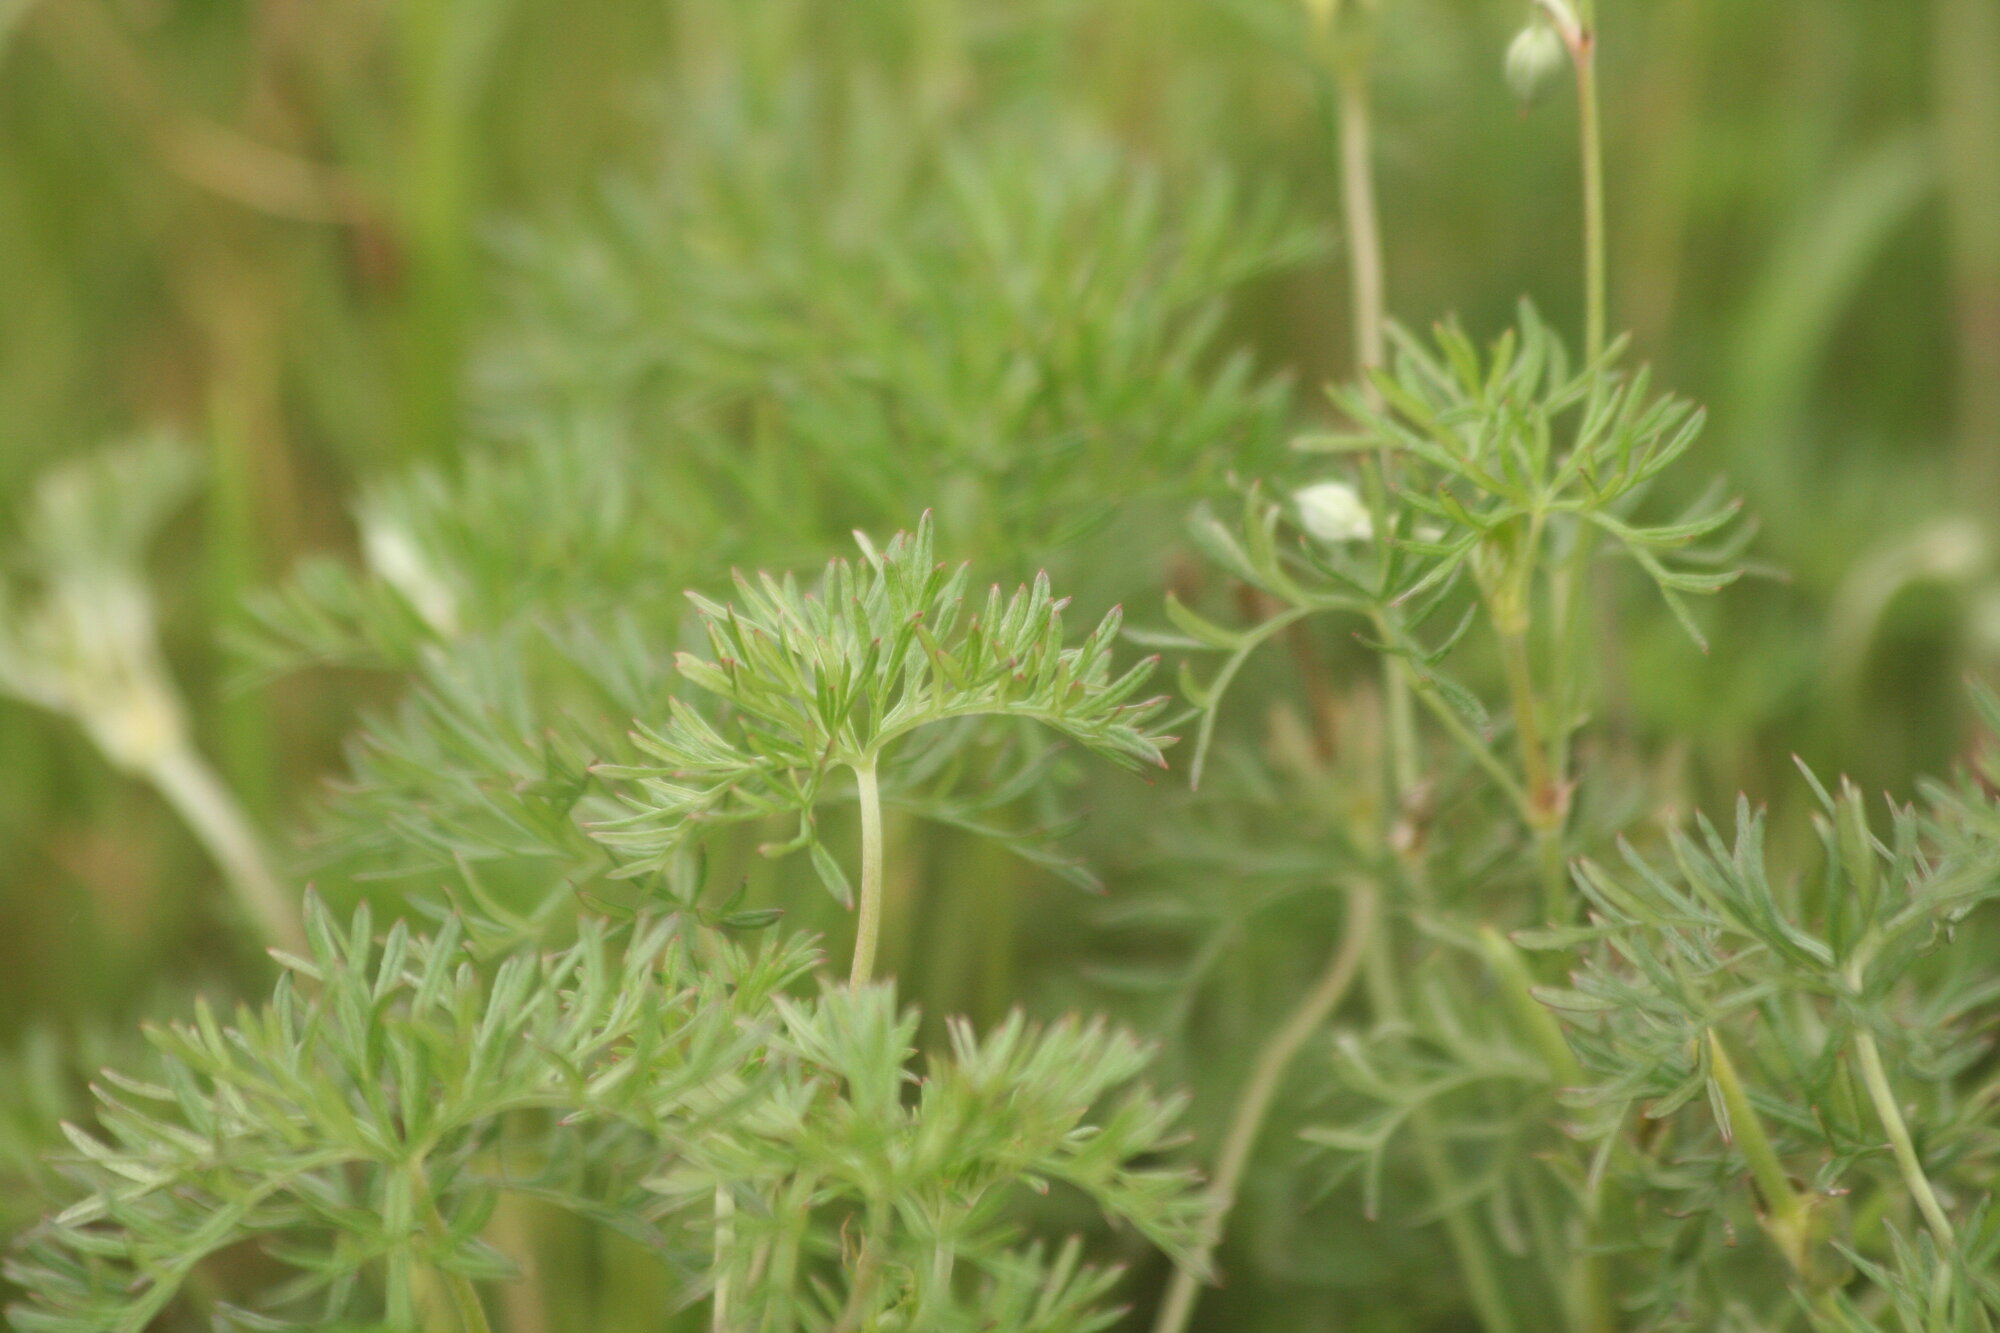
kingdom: Plantae
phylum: Tracheophyta
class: Magnoliopsida
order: Geraniales
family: Geraniaceae
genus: Geranium
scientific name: Geranium incanum
